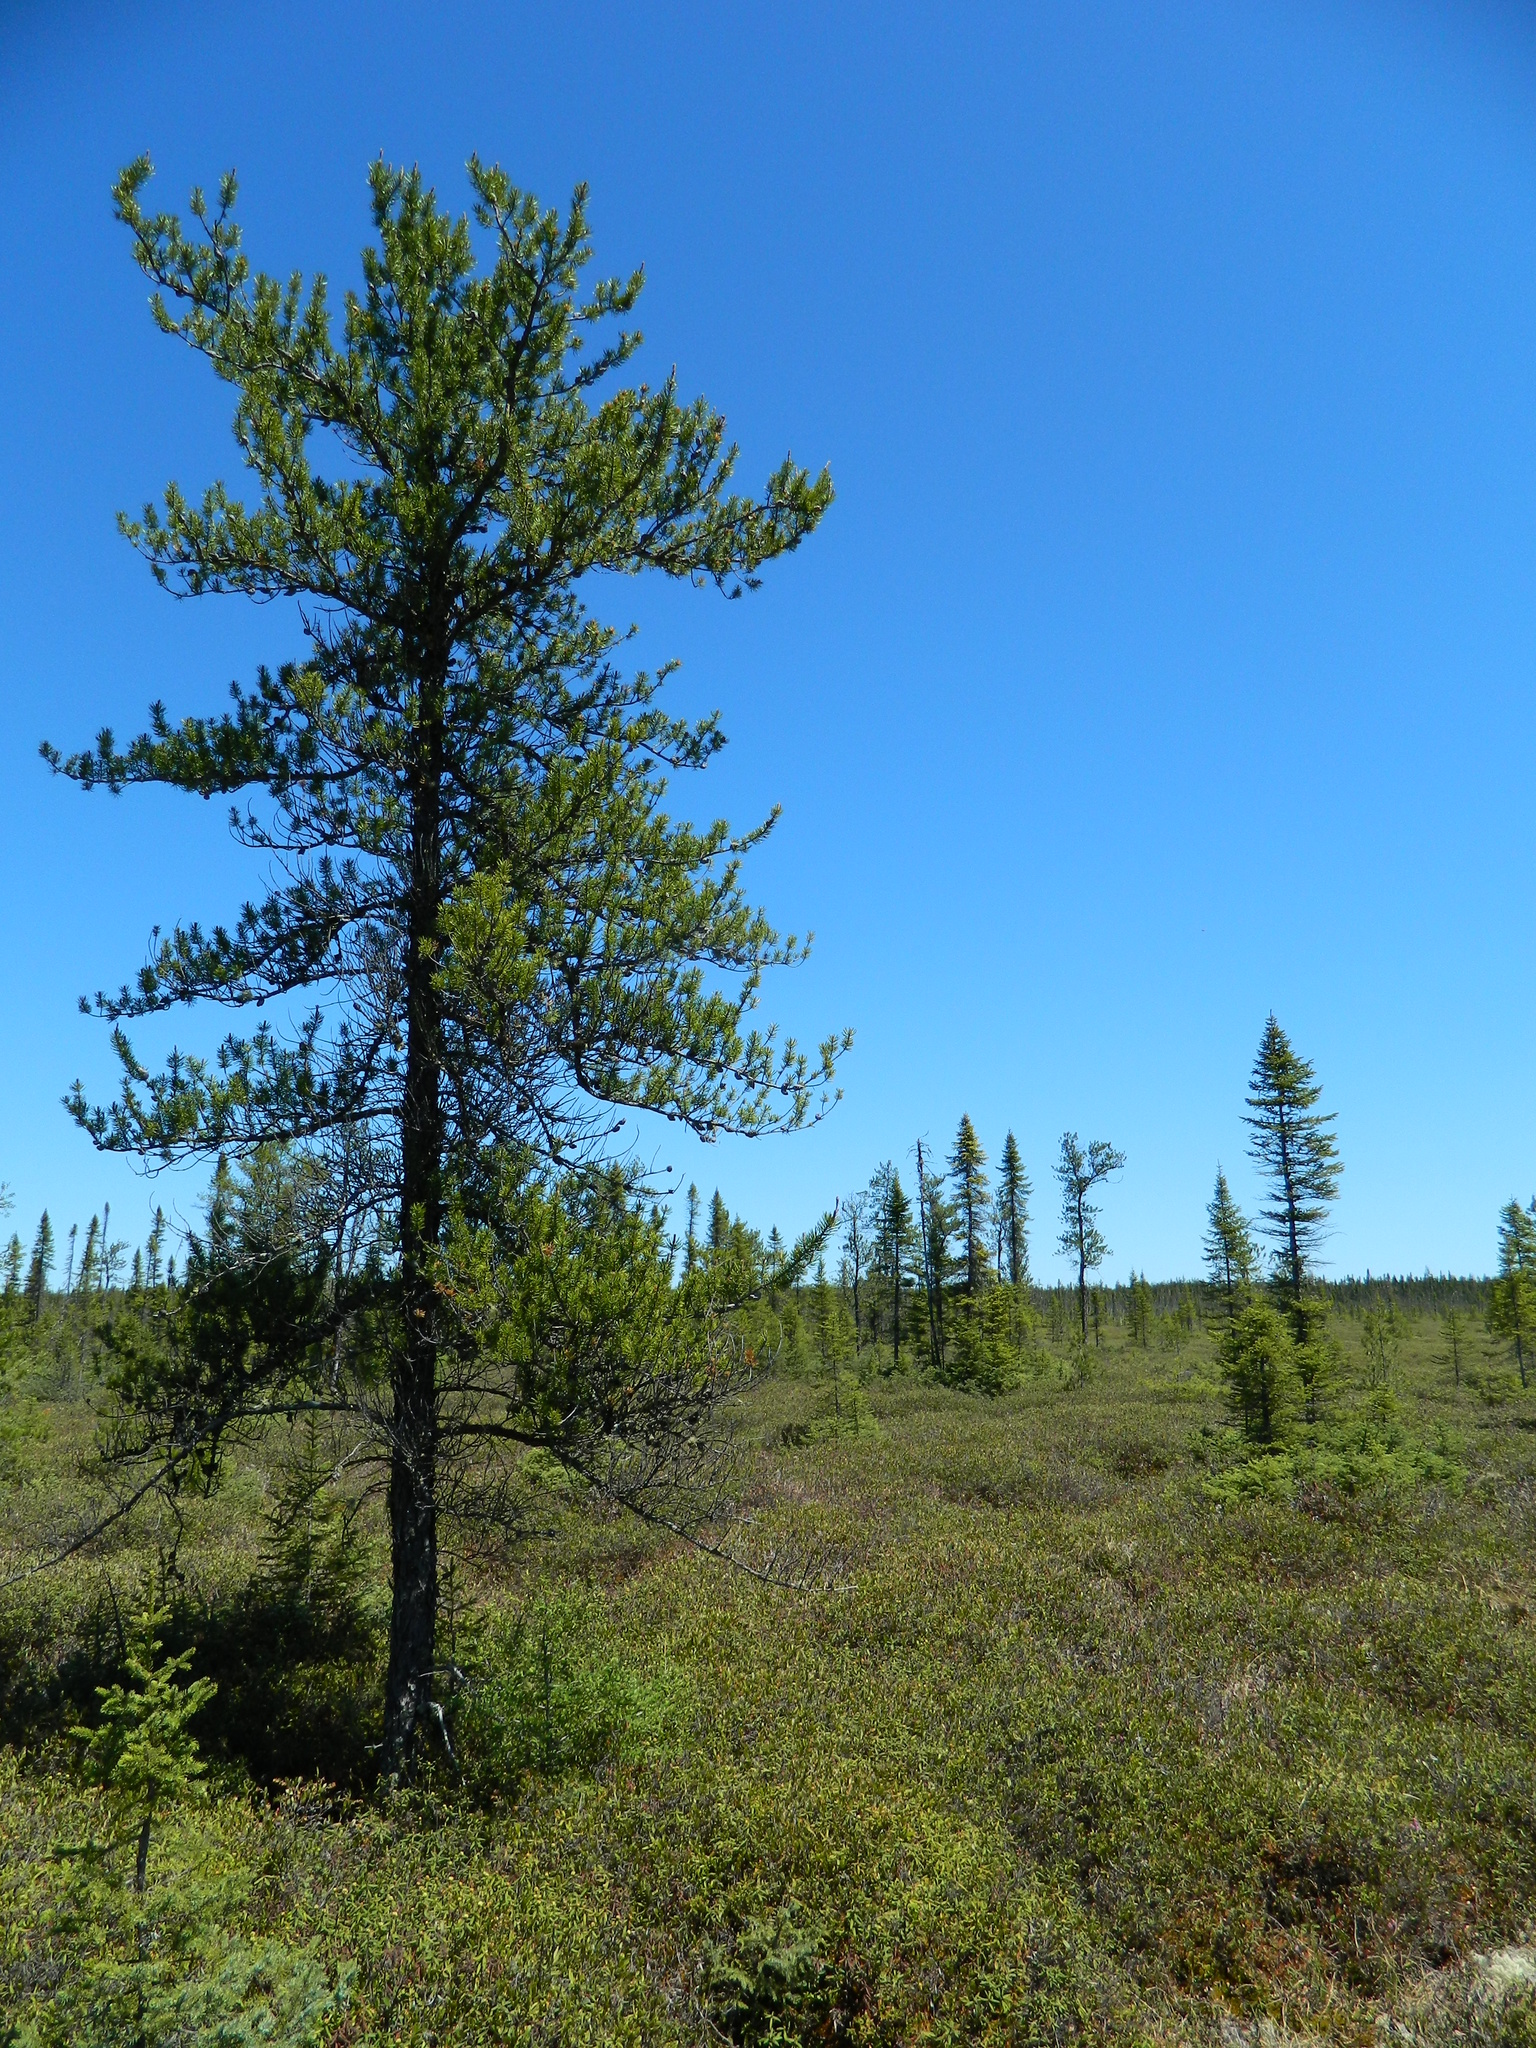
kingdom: Plantae
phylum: Tracheophyta
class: Pinopsida
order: Pinales
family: Pinaceae
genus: Pinus
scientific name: Pinus banksiana
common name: Jack pine
